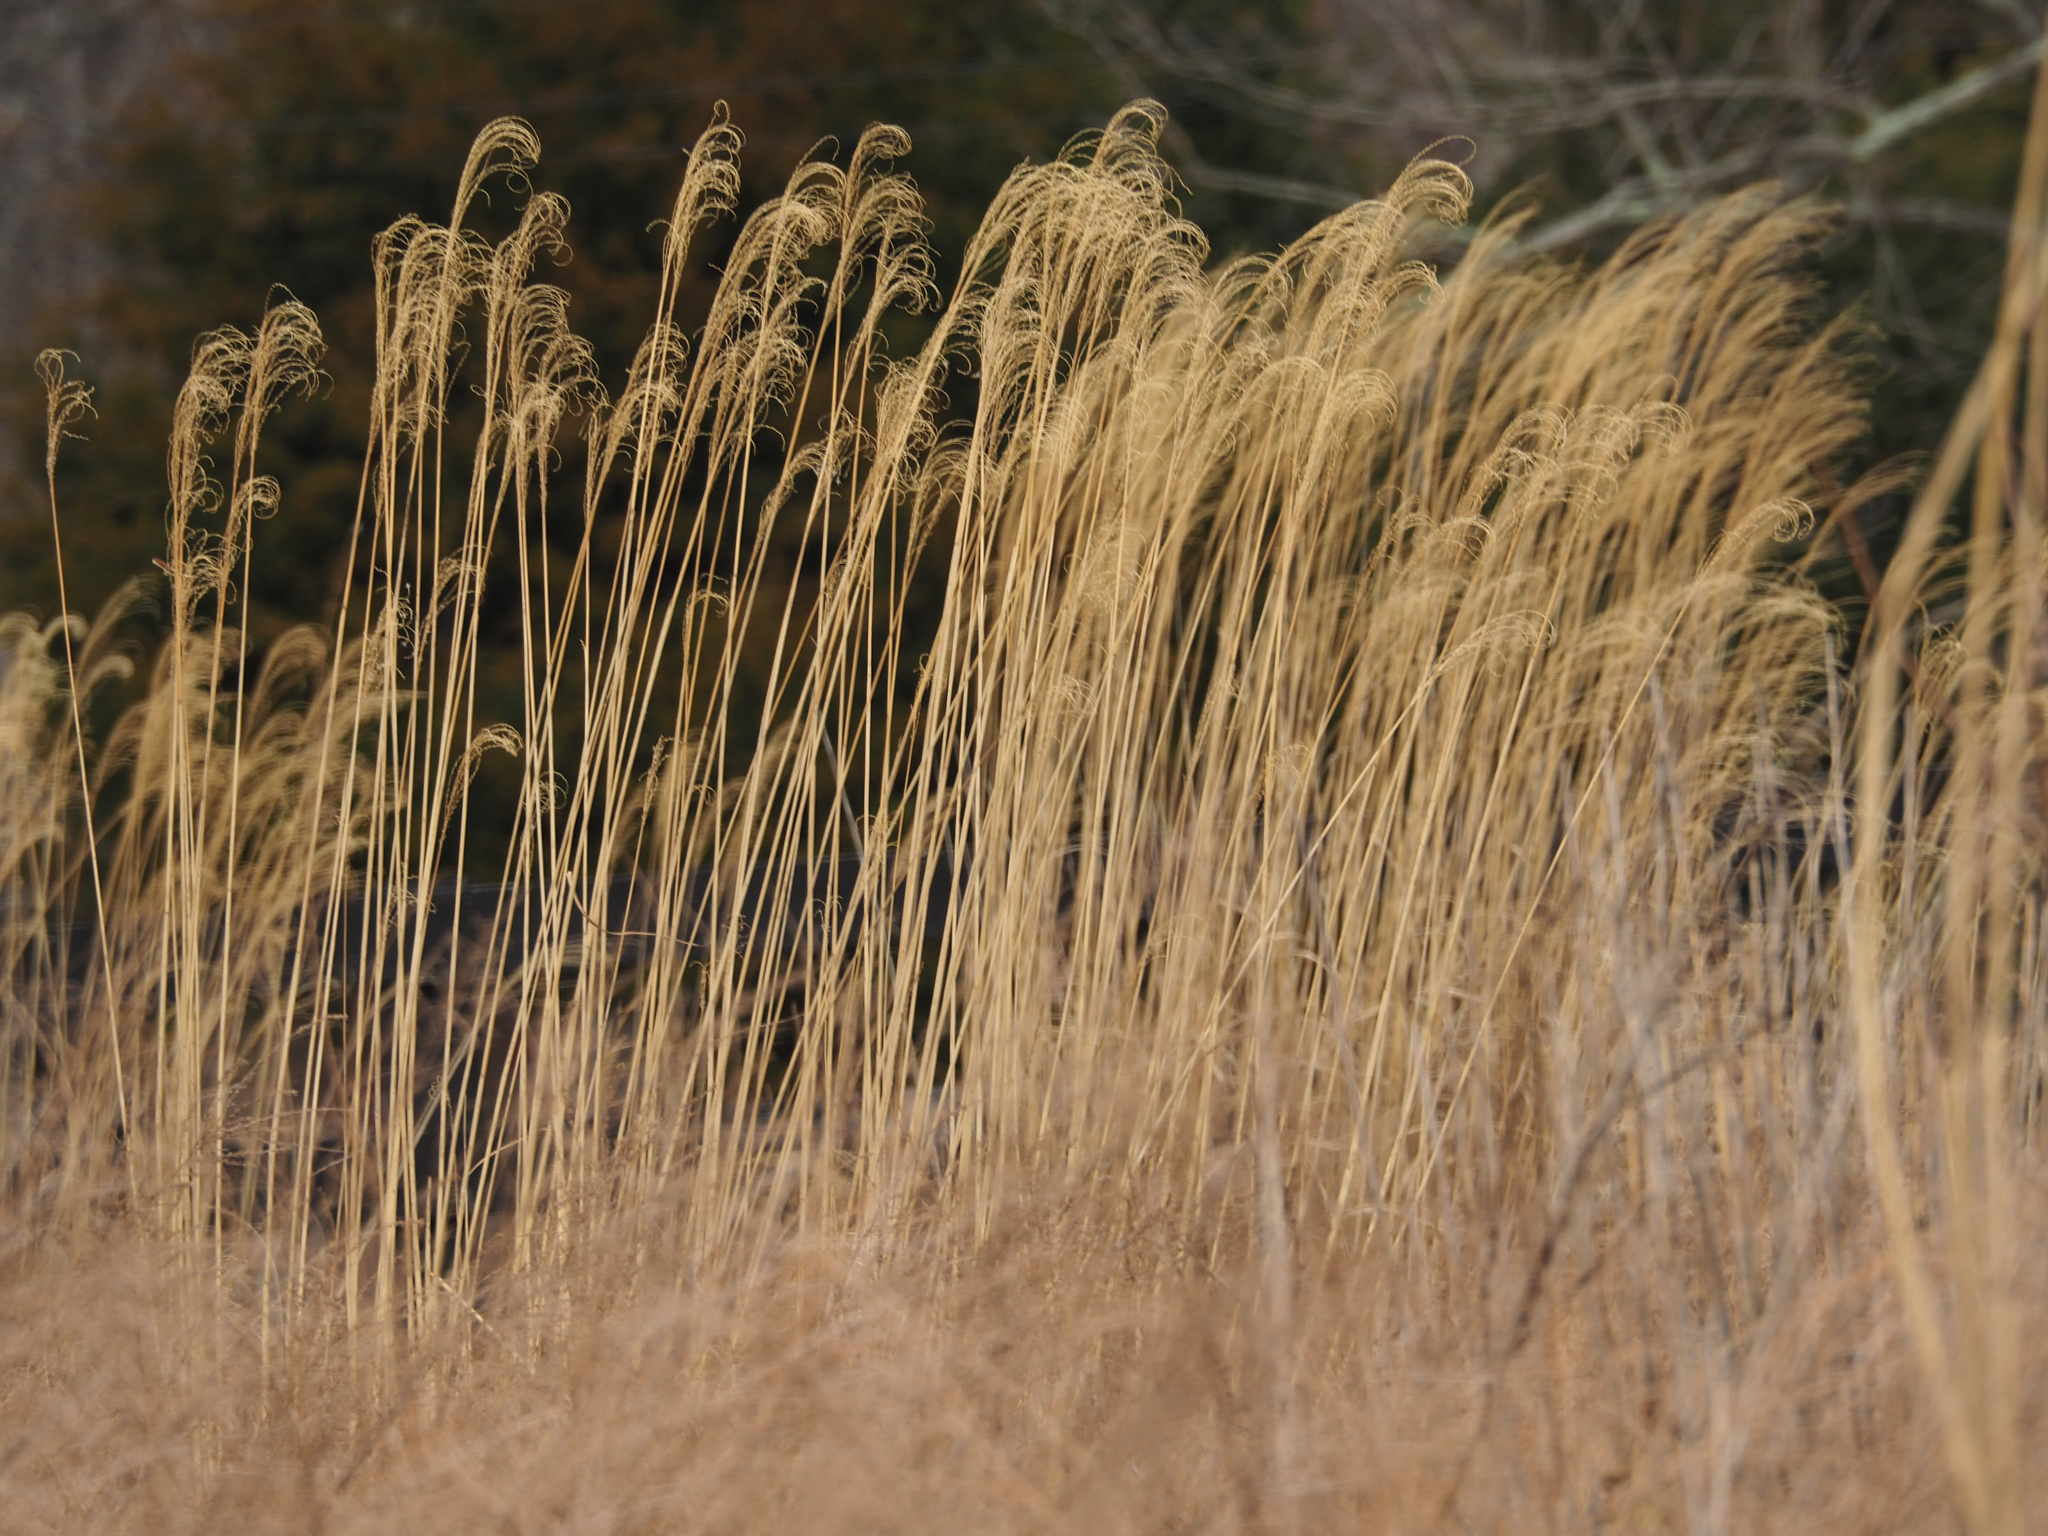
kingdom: Plantae
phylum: Tracheophyta
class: Liliopsida
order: Poales
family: Poaceae
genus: Miscanthus
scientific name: Miscanthus sinensis
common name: Chinese silvergrass
